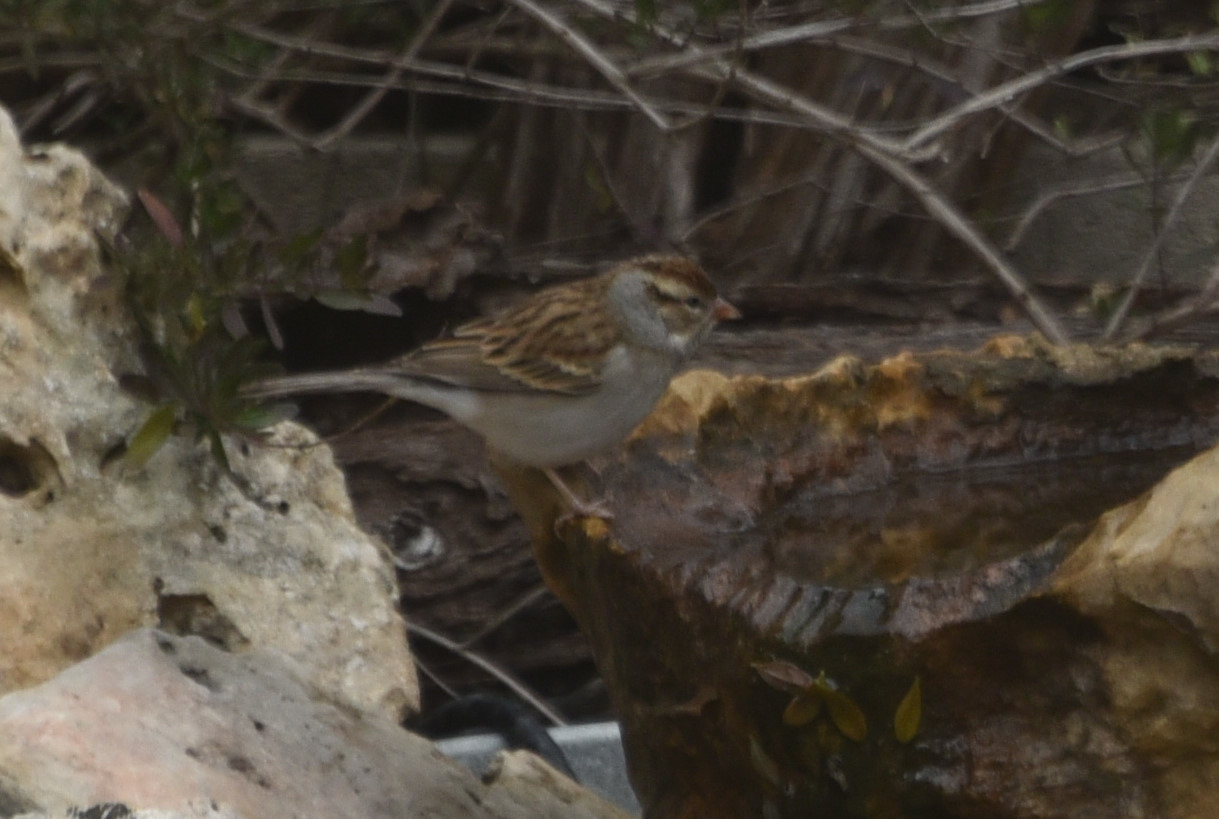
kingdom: Animalia
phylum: Chordata
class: Aves
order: Passeriformes
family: Passerellidae
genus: Spizella
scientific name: Spizella passerina
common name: Chipping sparrow
